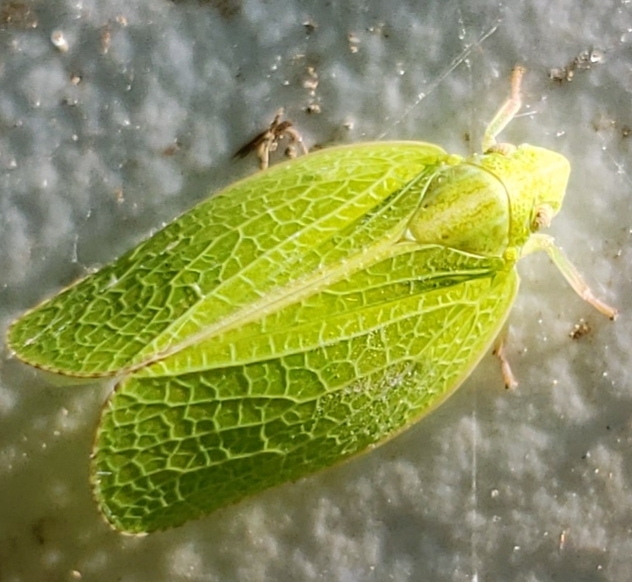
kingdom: Animalia
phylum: Arthropoda
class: Insecta
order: Hemiptera
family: Acanaloniidae
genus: Acanalonia
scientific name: Acanalonia conica
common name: Green cone-headed planthopper
